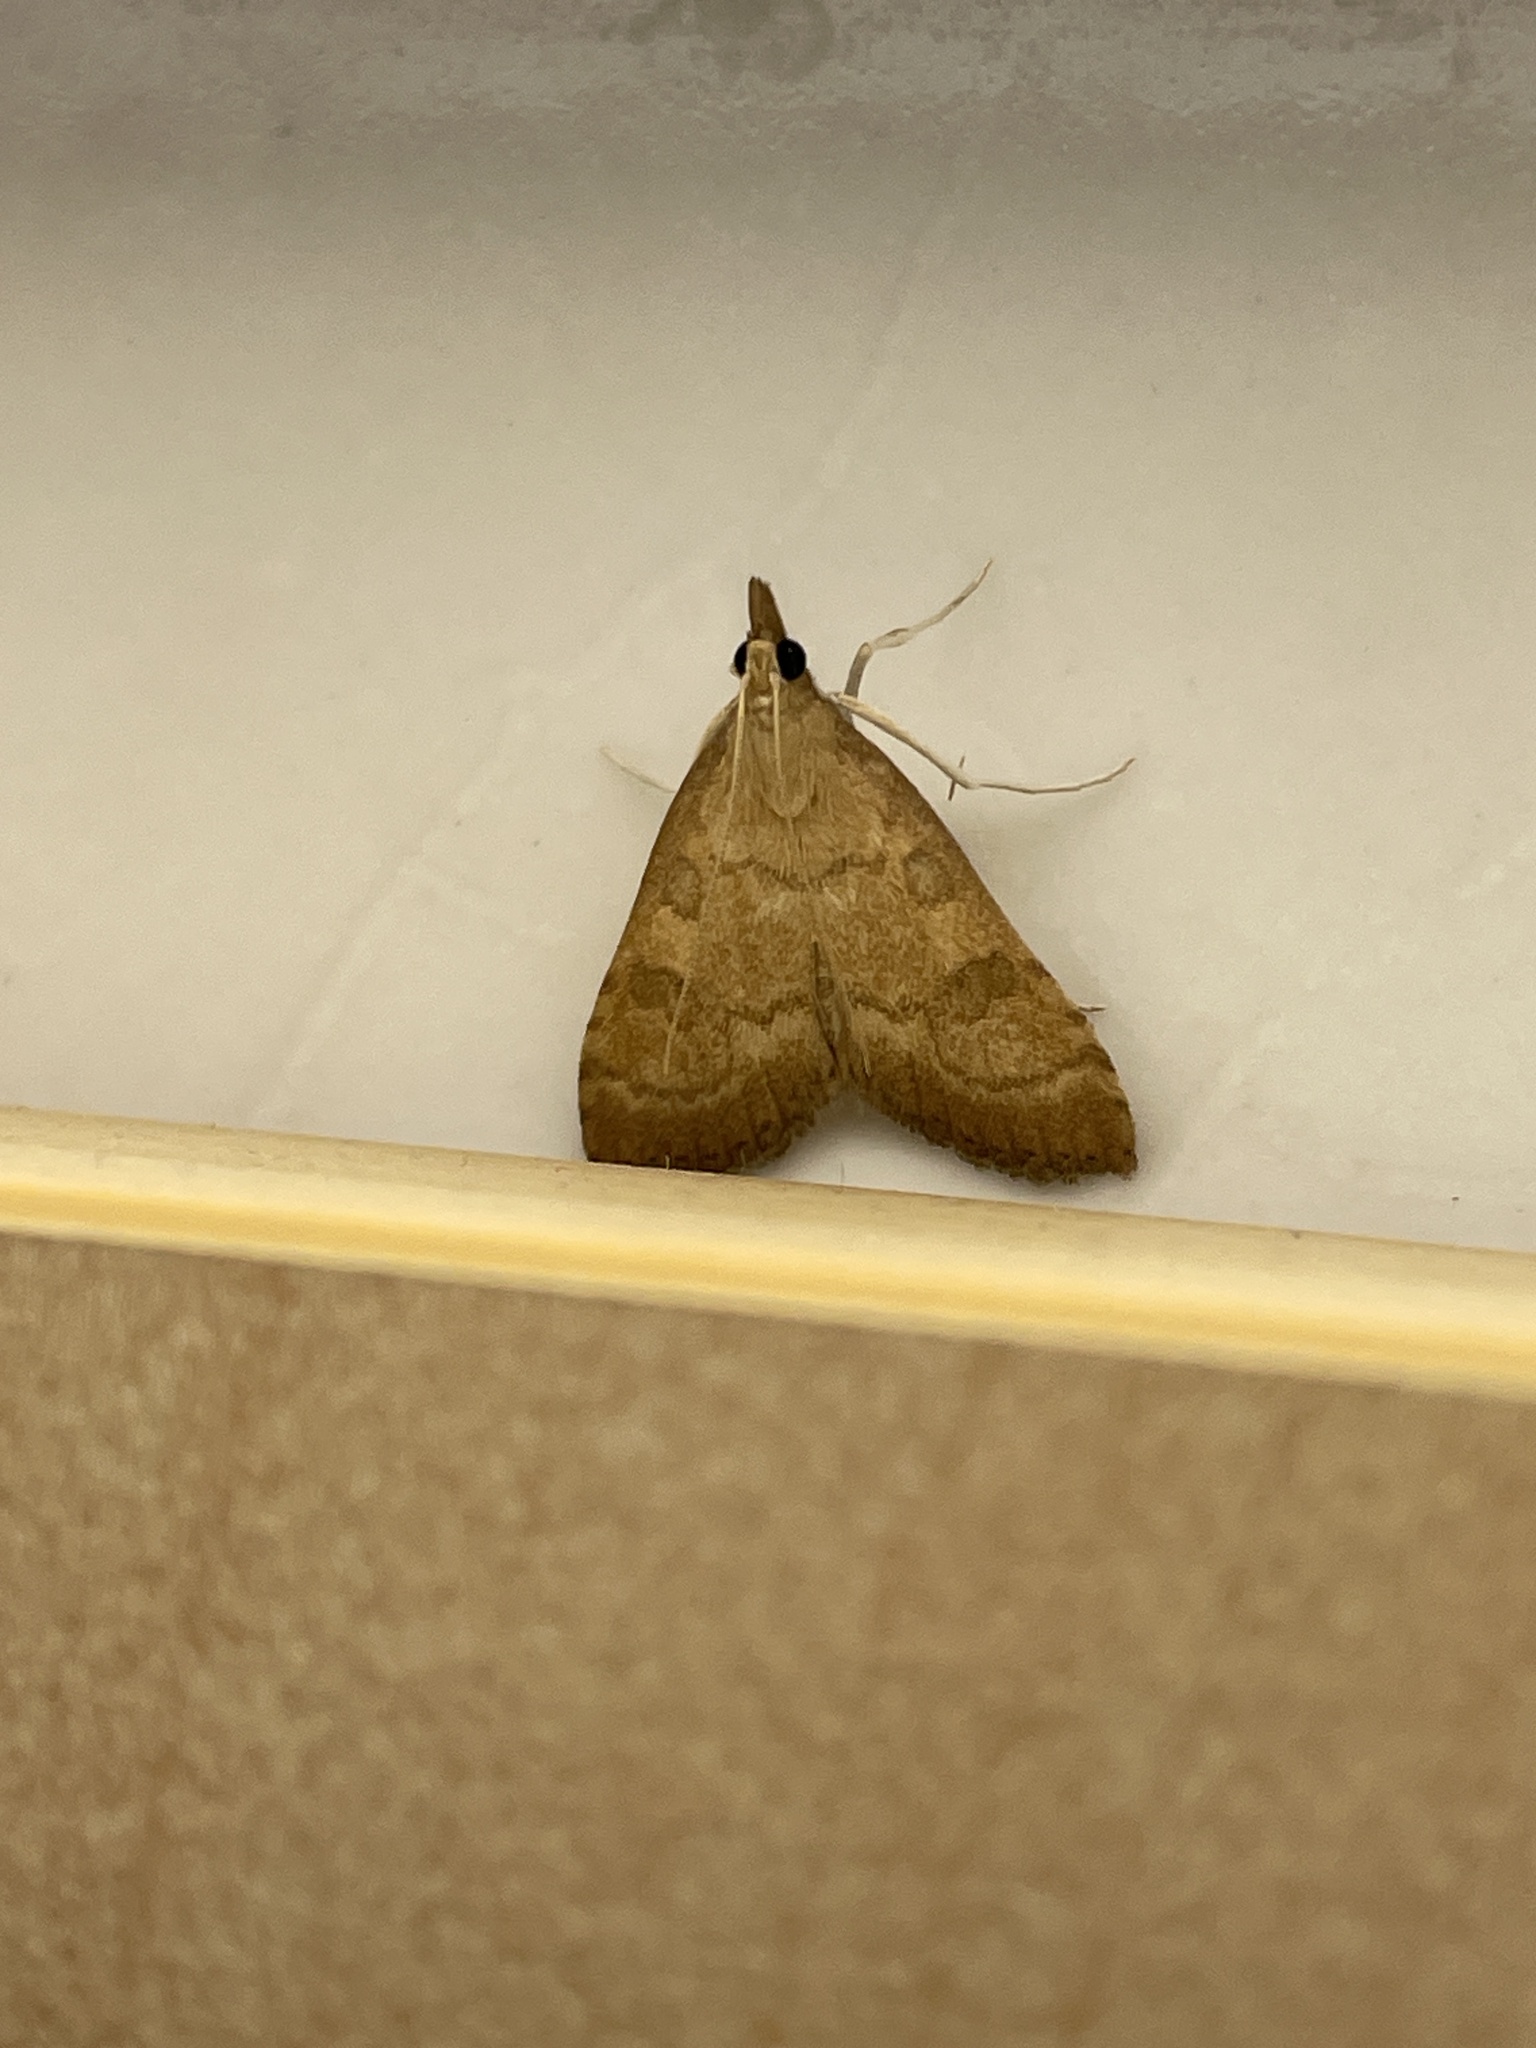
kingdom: Animalia
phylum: Arthropoda
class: Insecta
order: Lepidoptera
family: Crambidae
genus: Udea
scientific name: Udea fulvalis
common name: Fulvous pearl
